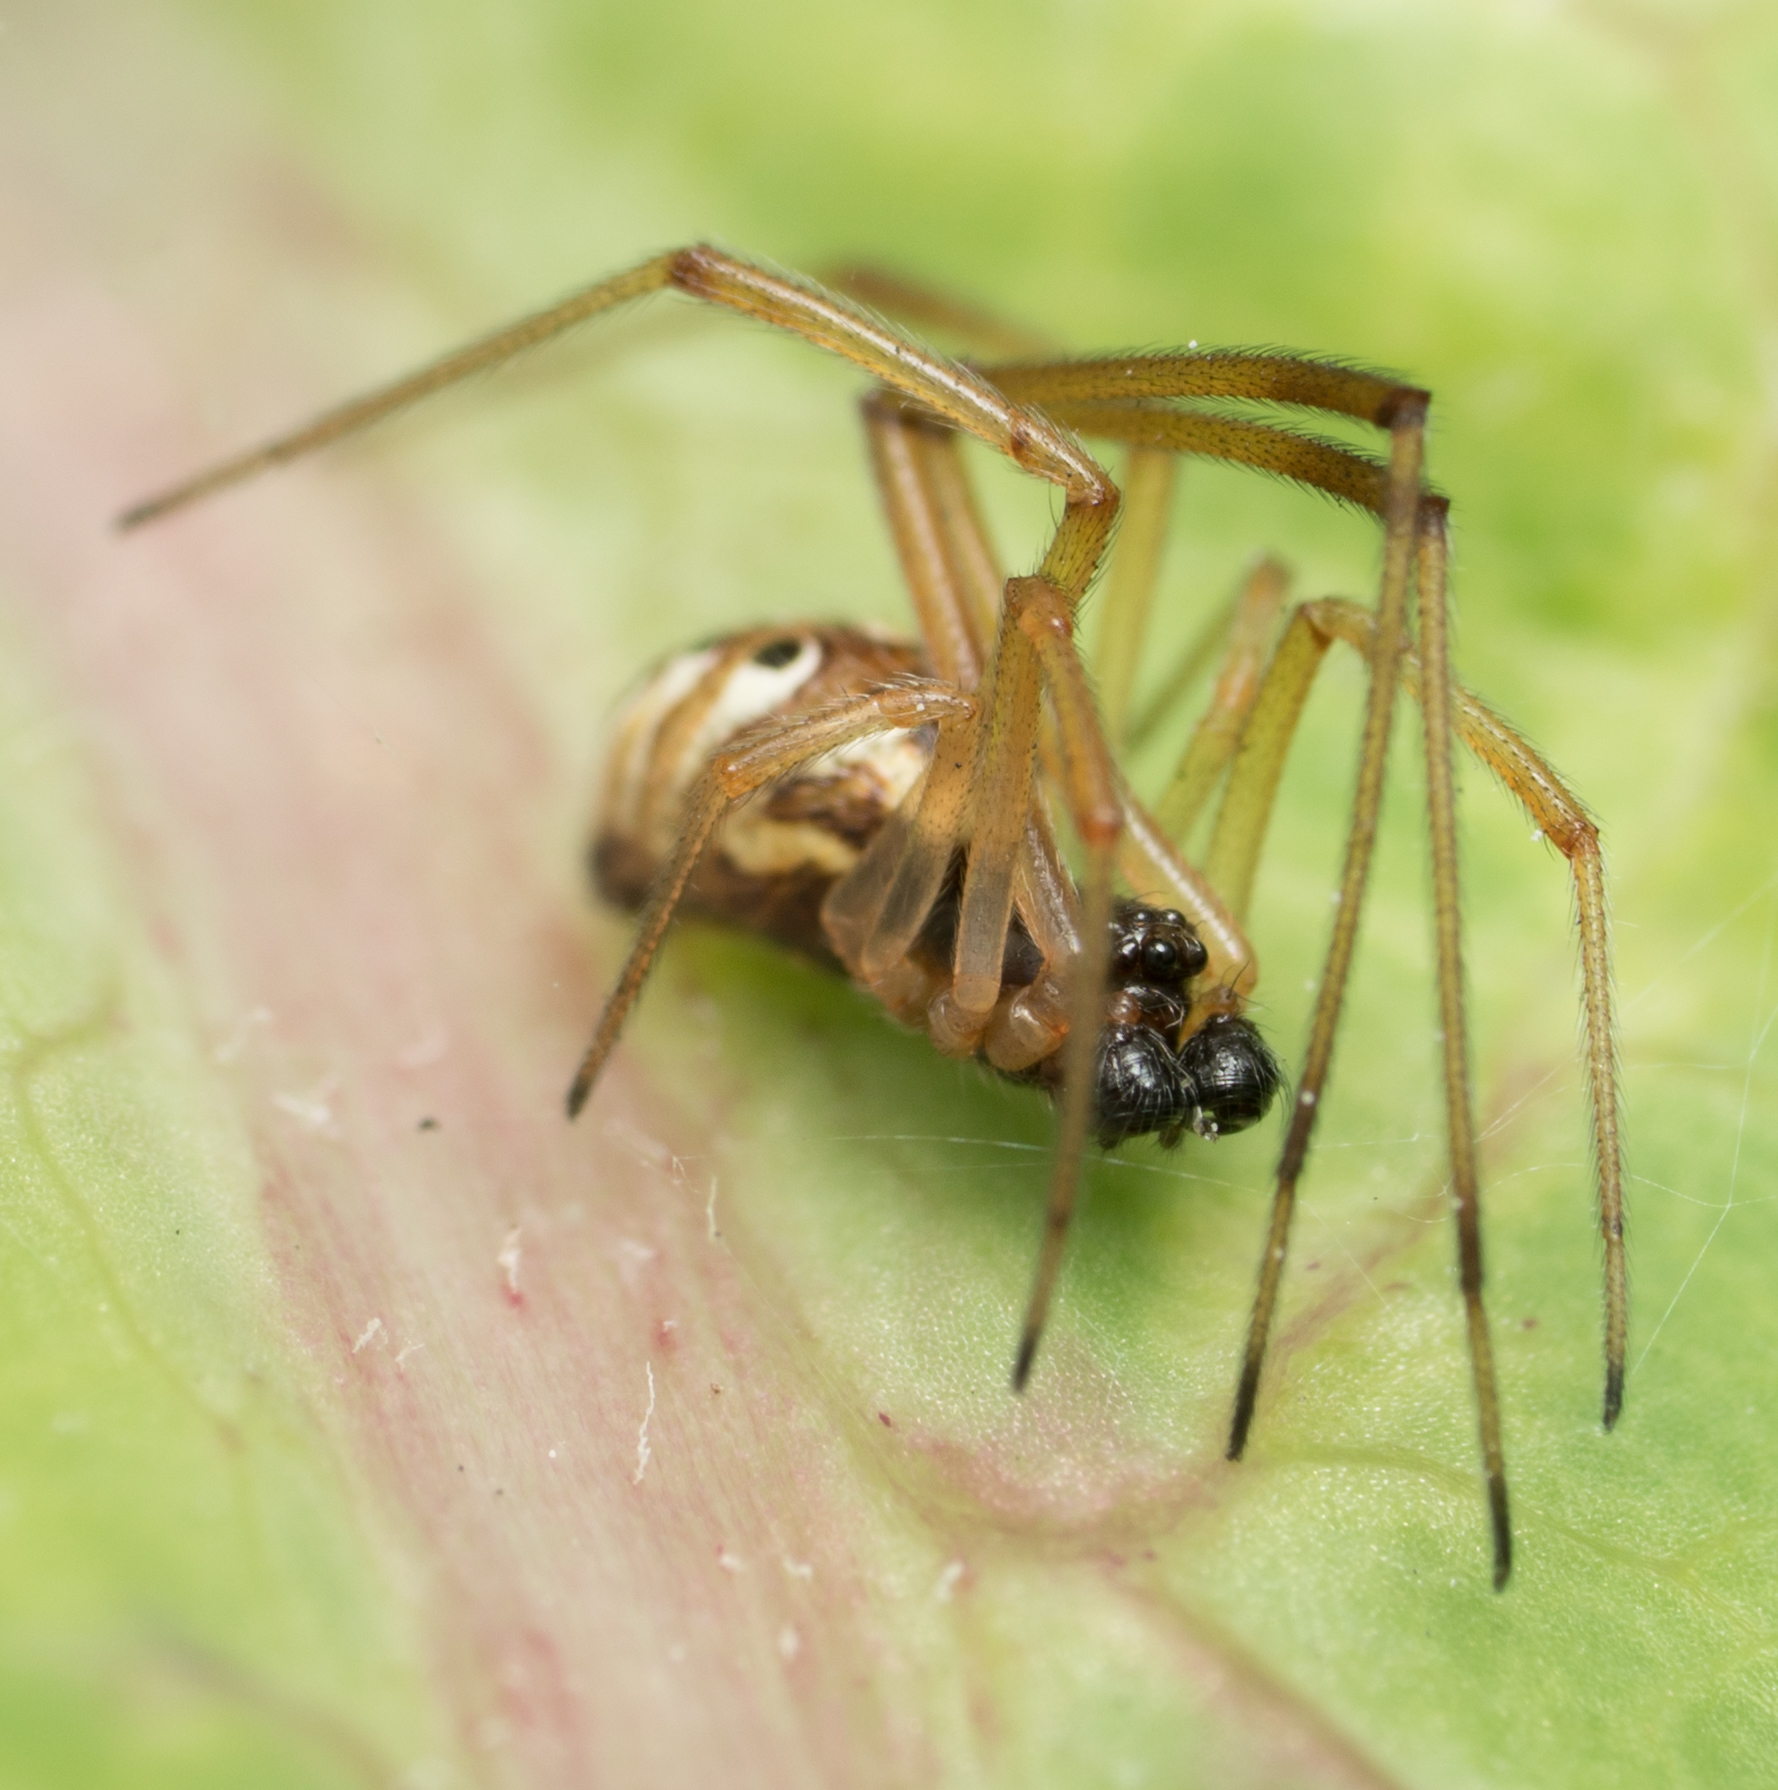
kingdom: Animalia
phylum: Arthropoda
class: Arachnida
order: Araneae
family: Theridiidae
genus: Latrodectus
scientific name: Latrodectus geometricus
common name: Brown widow spider
